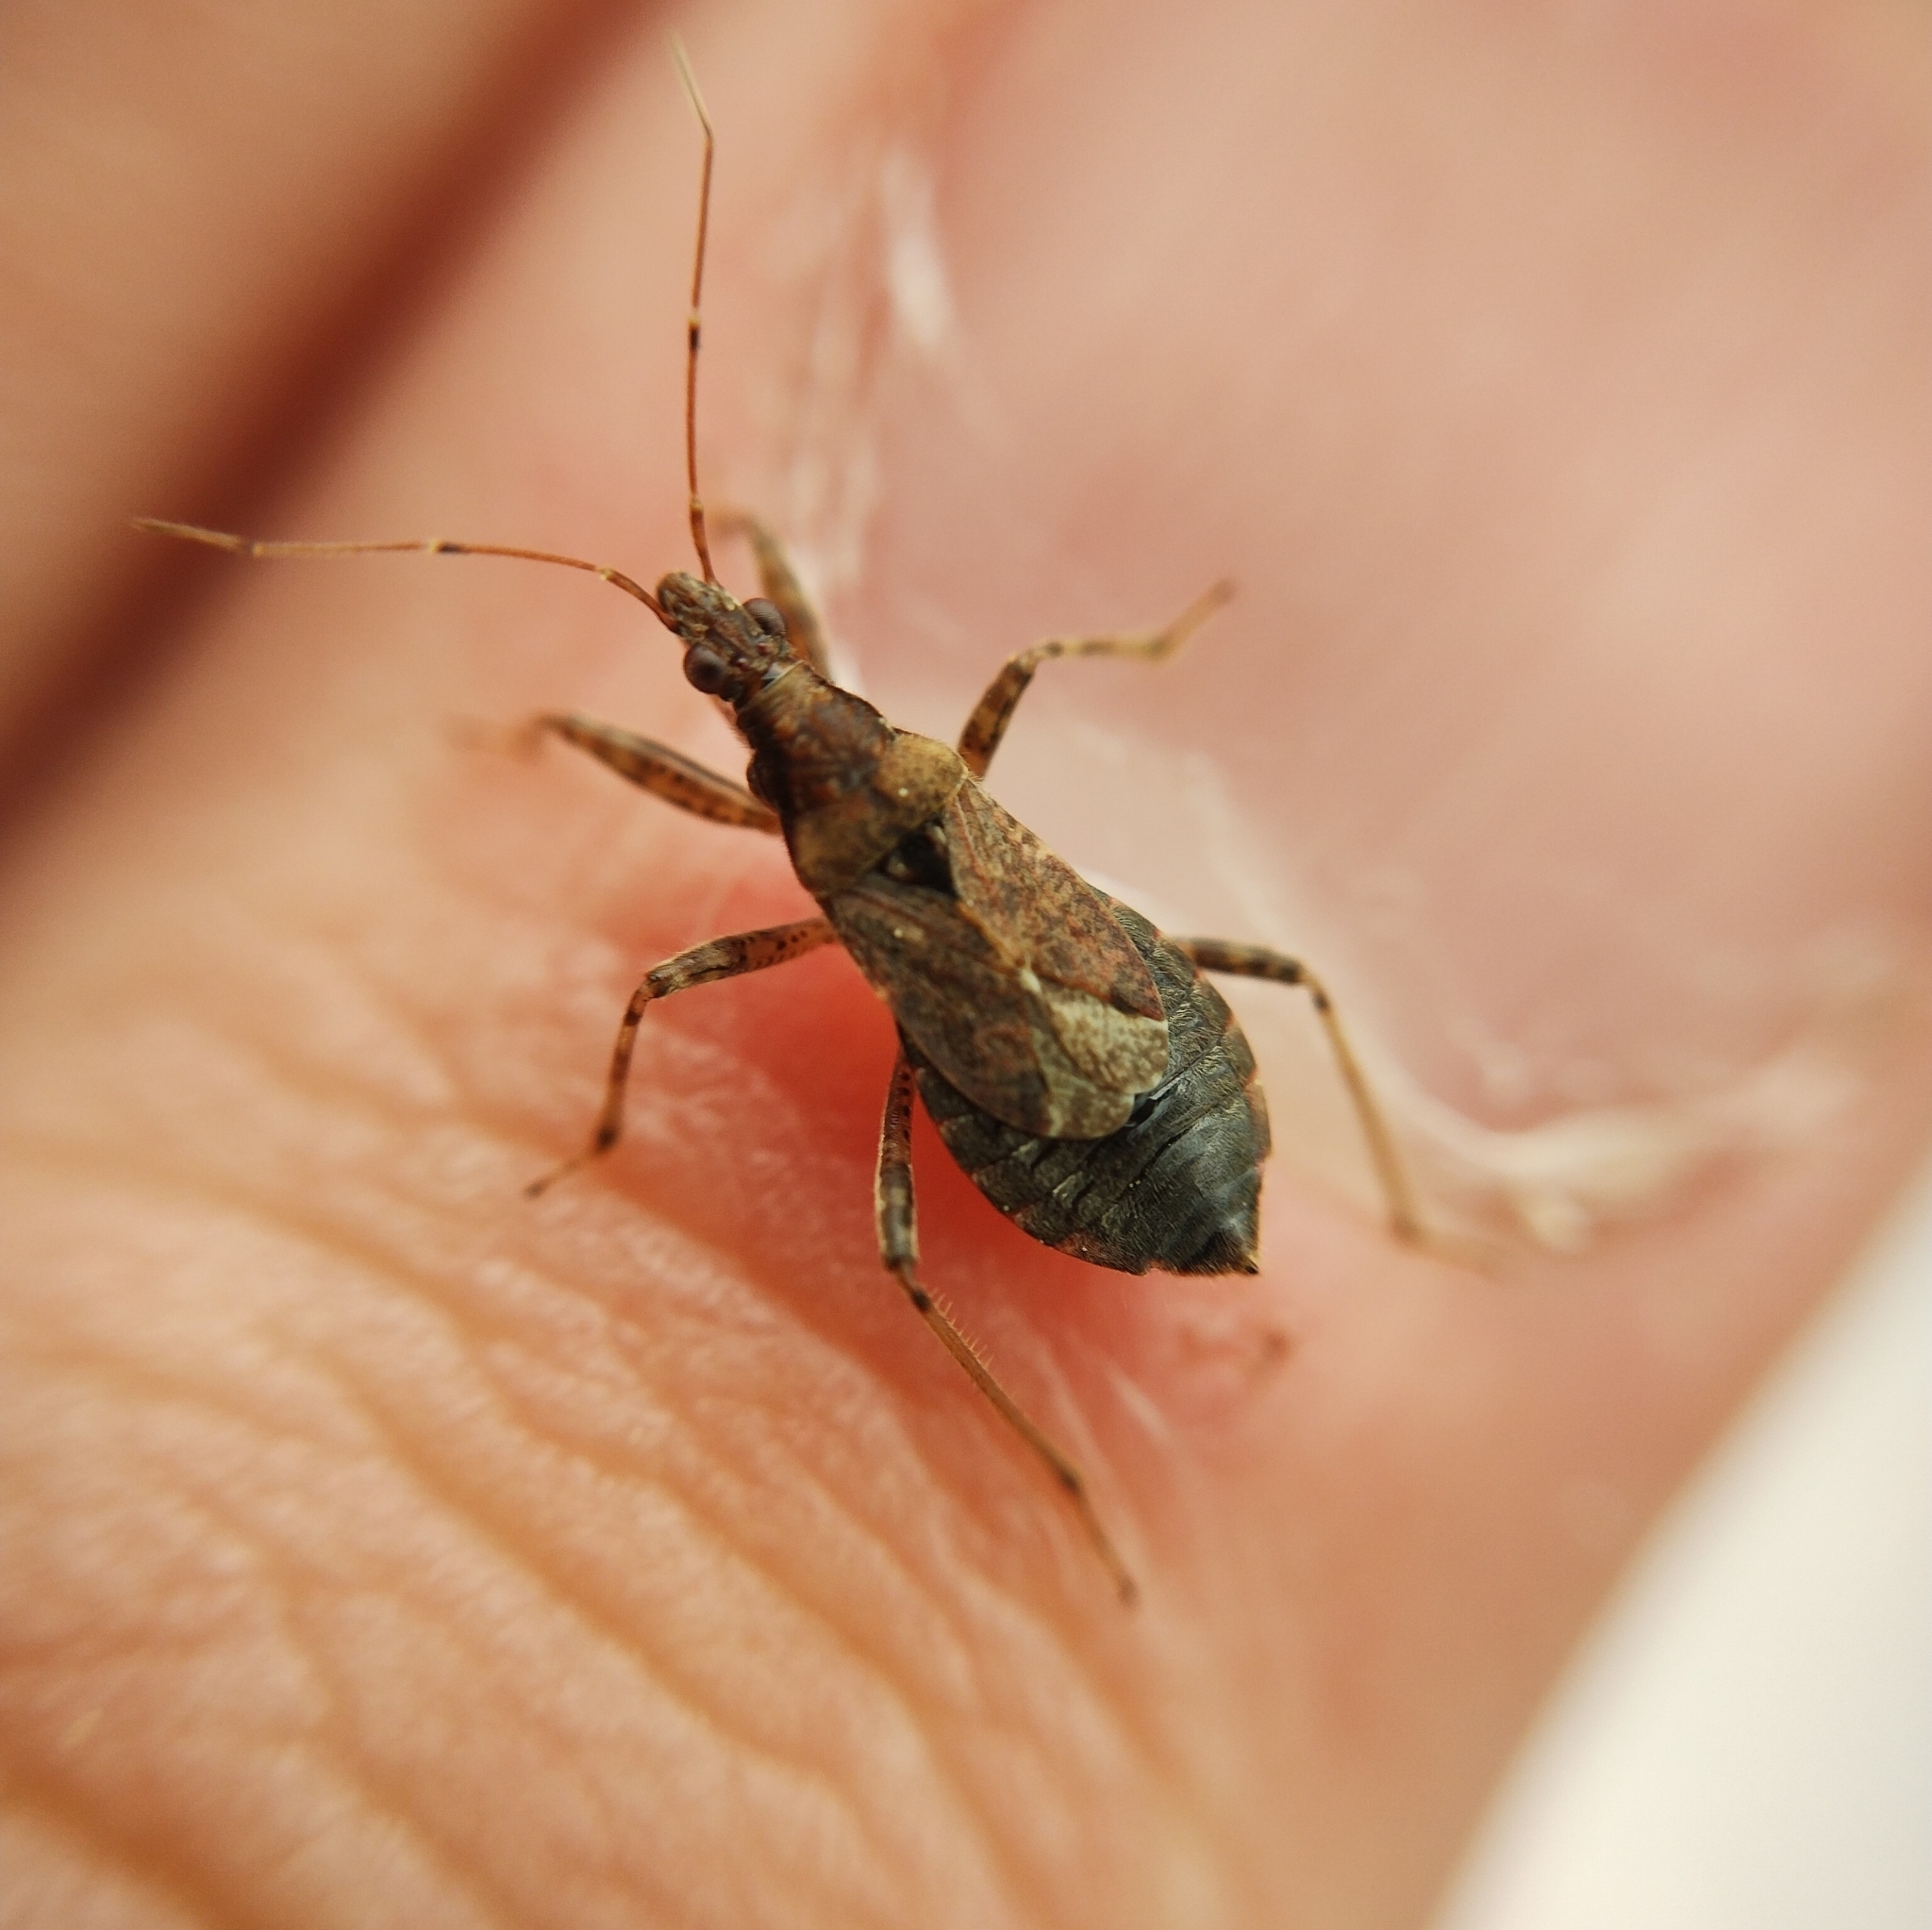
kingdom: Animalia
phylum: Arthropoda
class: Insecta
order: Hemiptera
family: Nabidae
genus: Himacerus
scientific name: Himacerus mirmicoides
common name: Ant damsel bug
